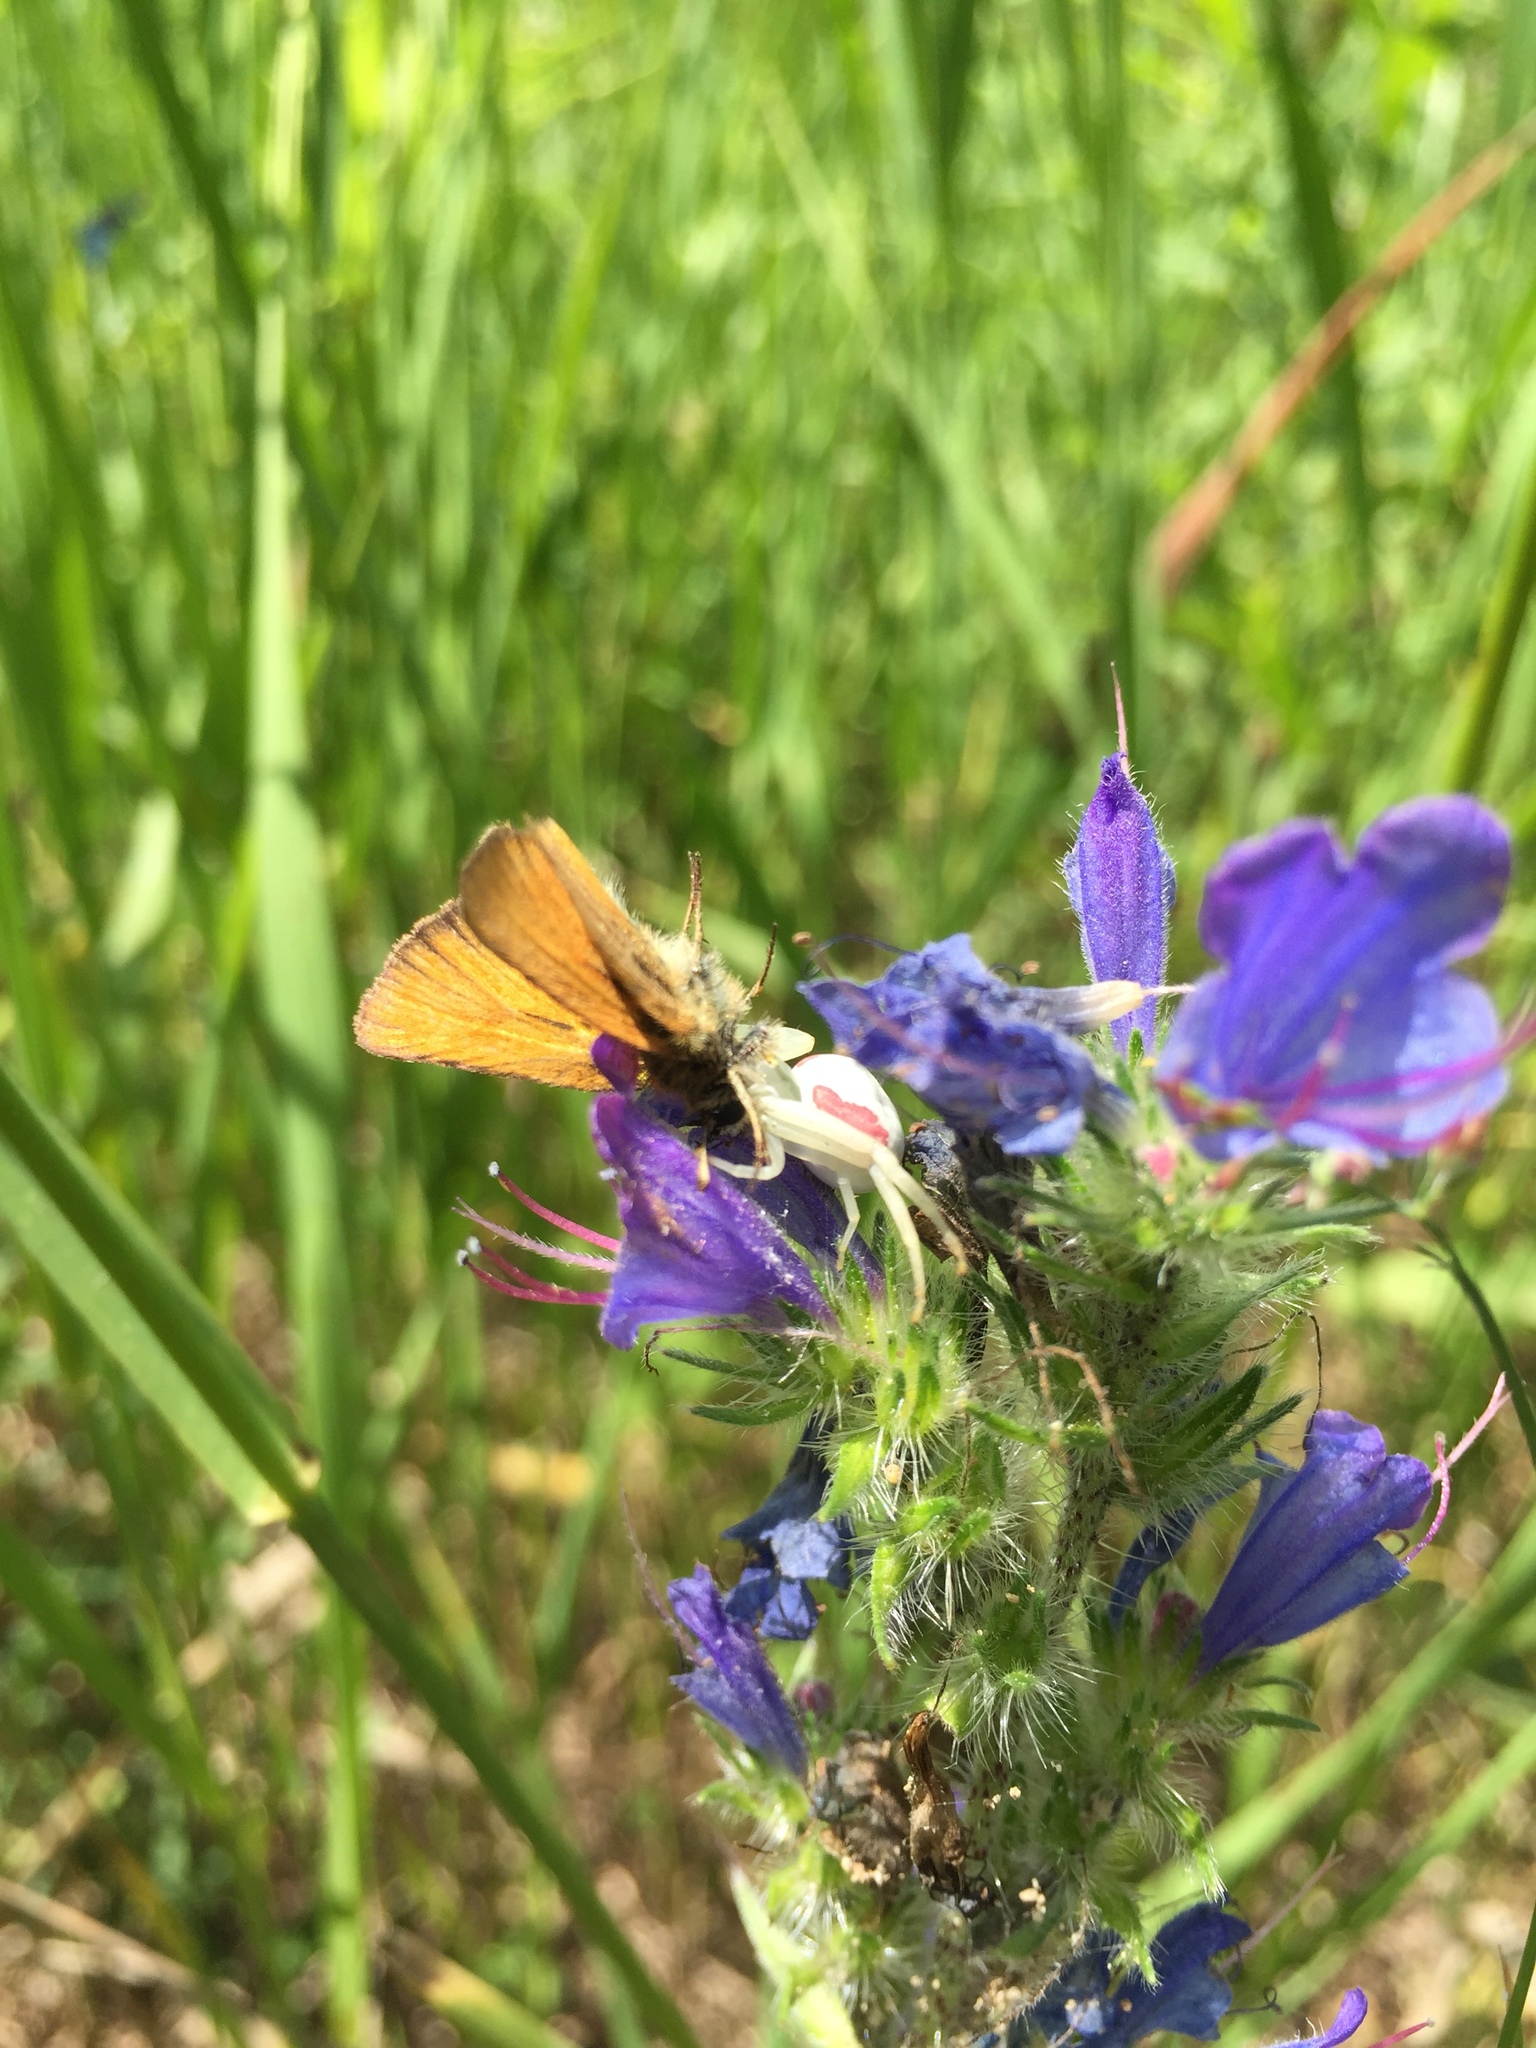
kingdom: Animalia
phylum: Arthropoda
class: Arachnida
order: Araneae
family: Thomisidae
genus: Misumena
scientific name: Misumena vatia
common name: Goldenrod crab spider
